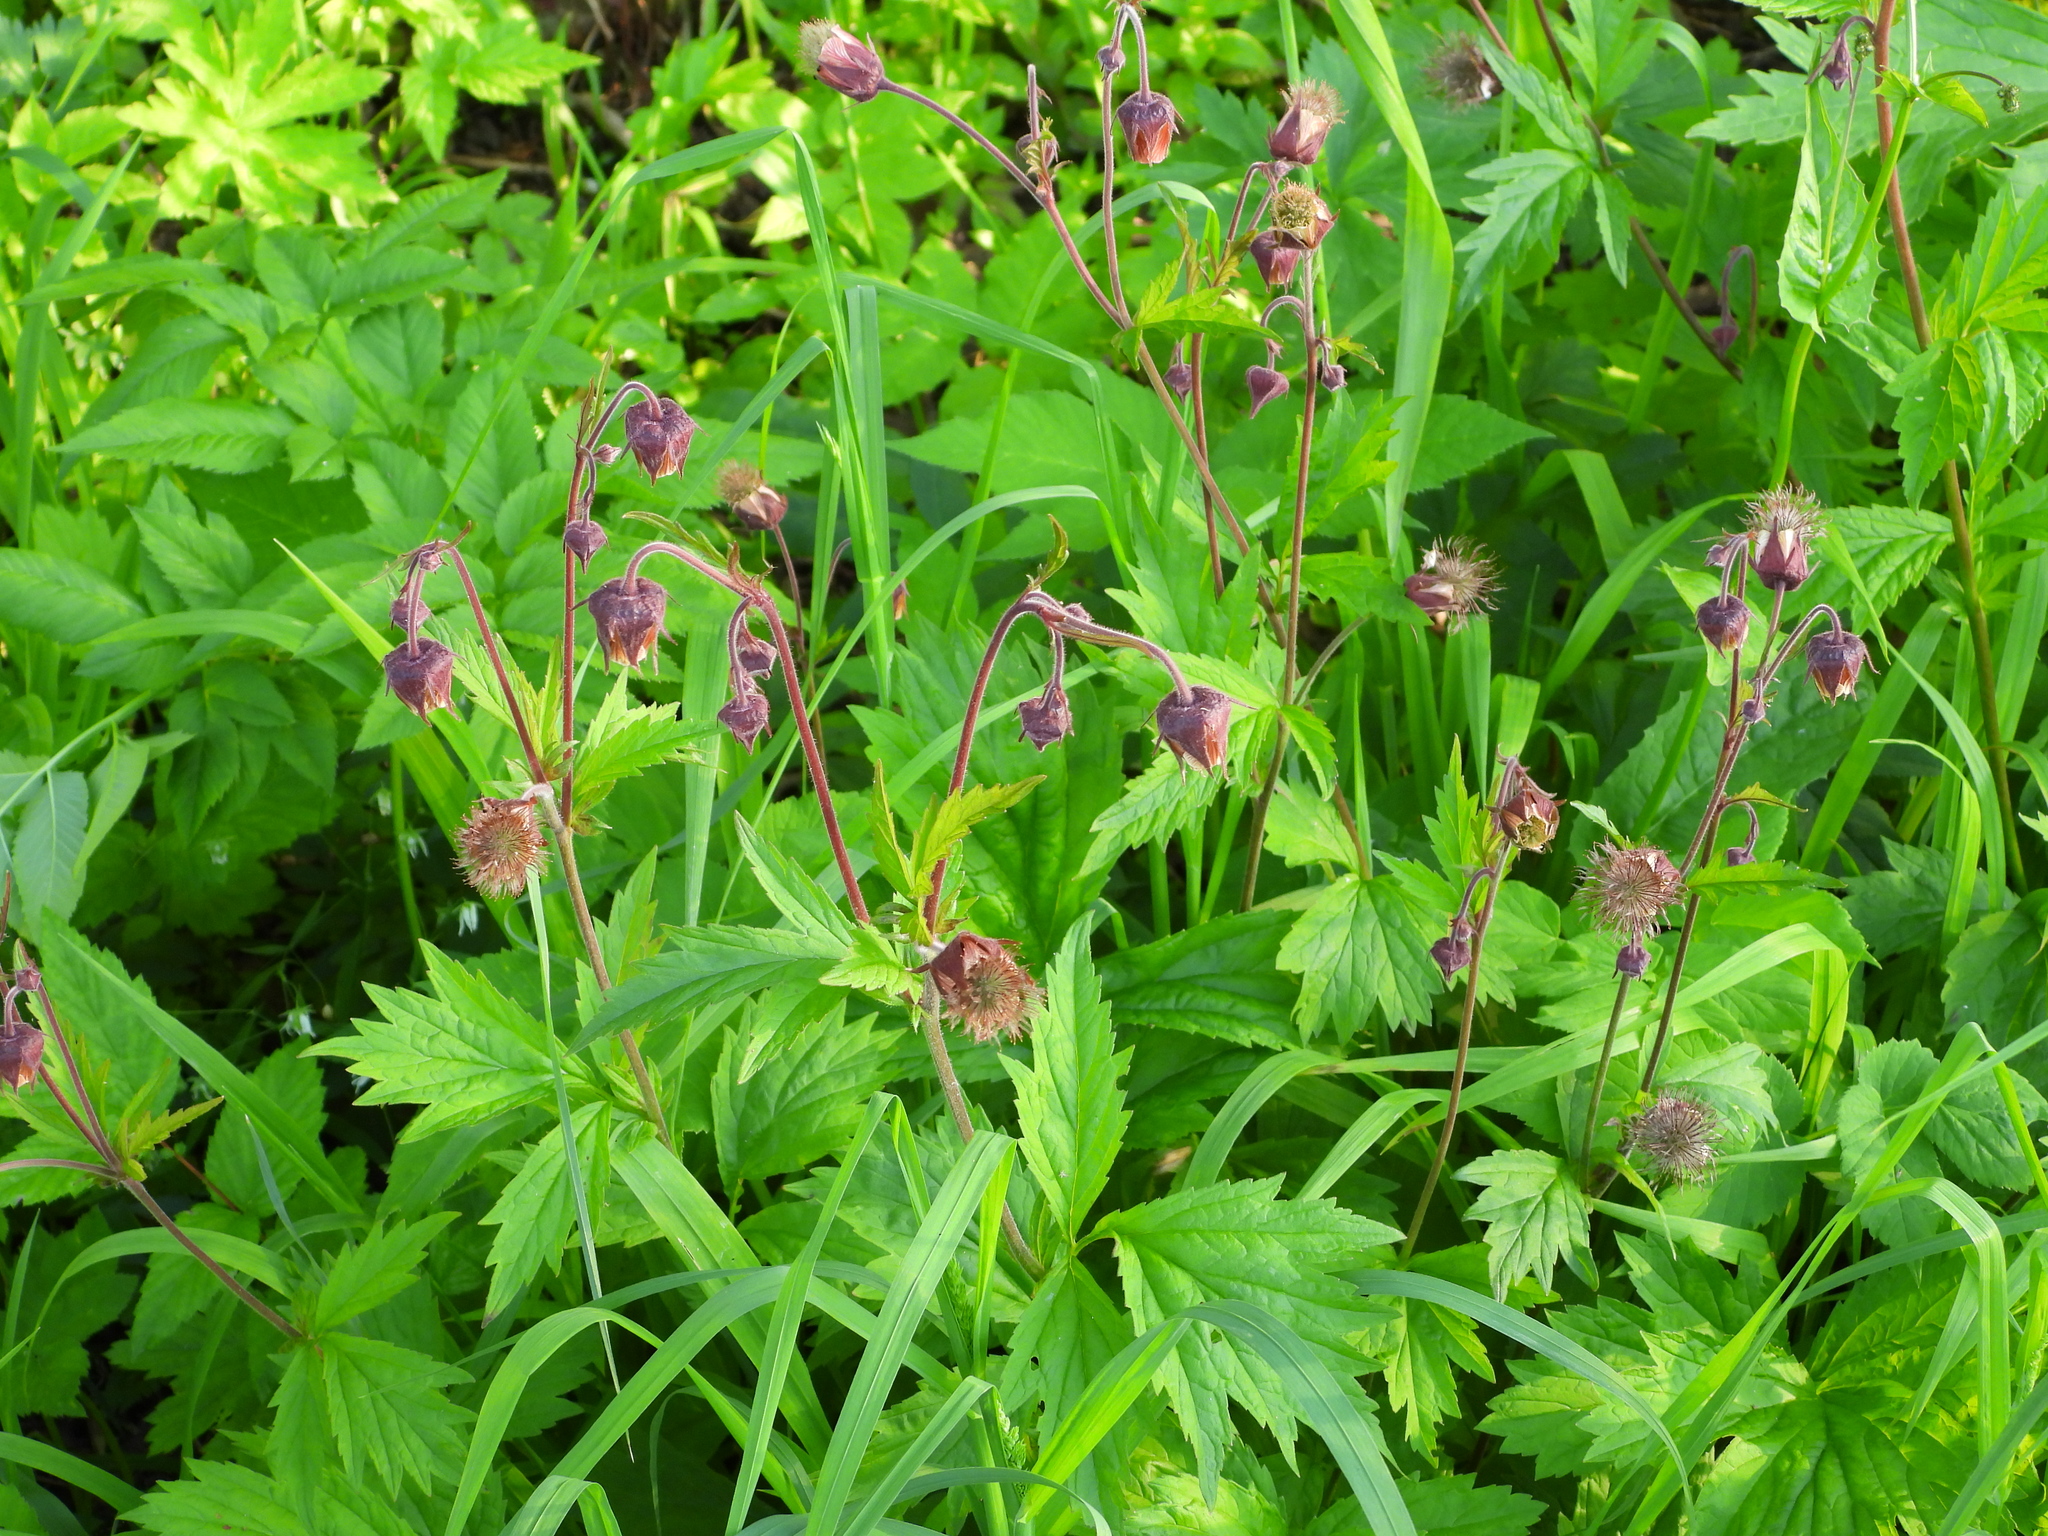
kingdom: Plantae
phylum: Tracheophyta
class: Magnoliopsida
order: Rosales
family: Rosaceae
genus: Geum
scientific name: Geum rivale
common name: Water avens
